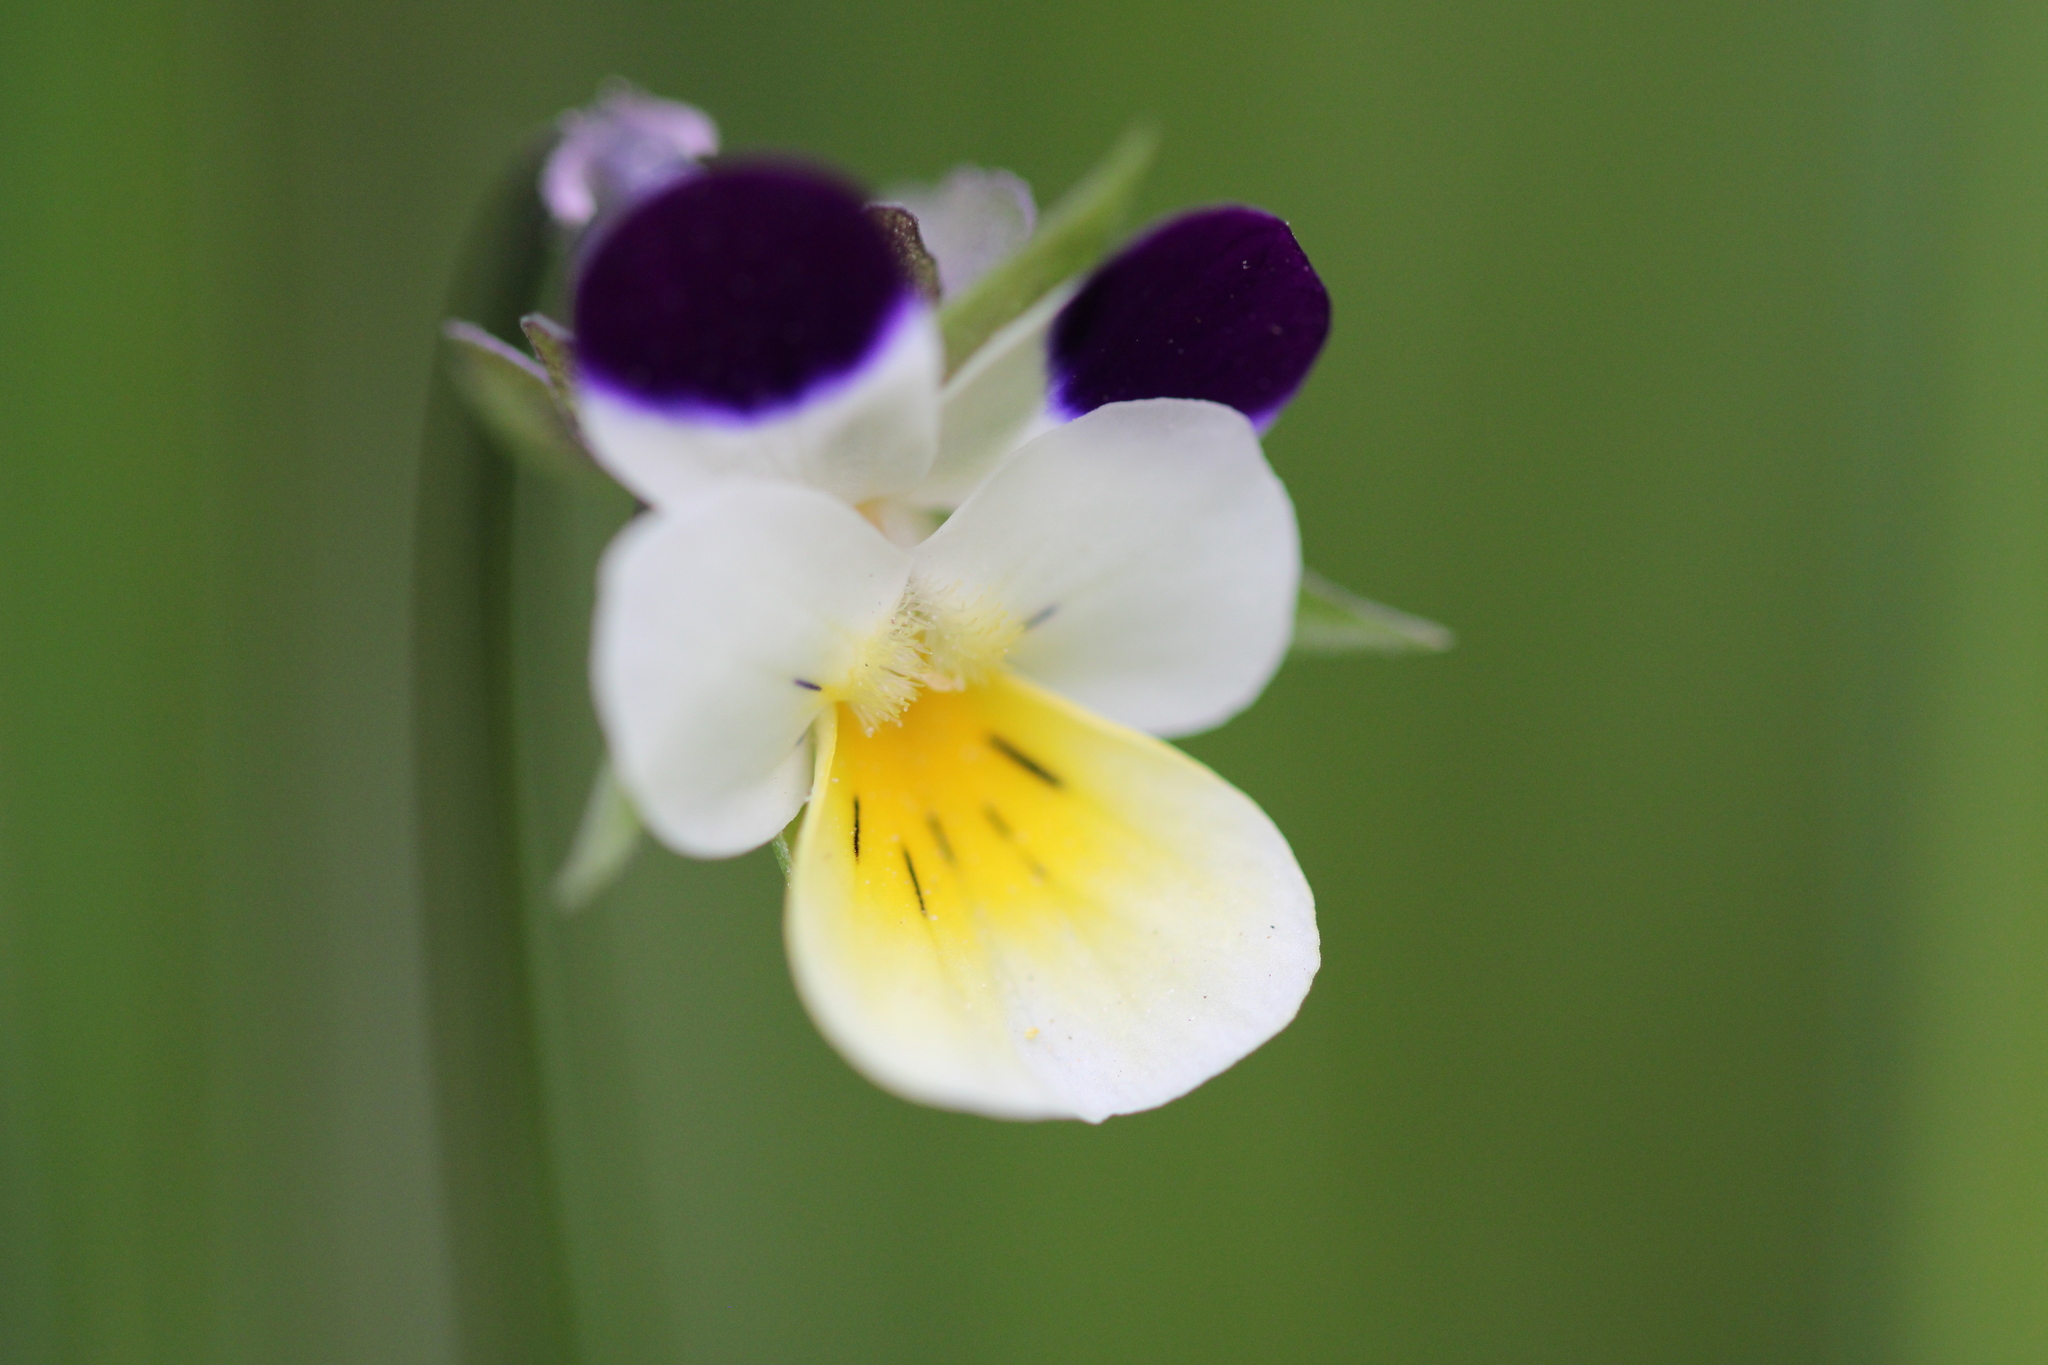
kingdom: Plantae
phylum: Tracheophyta
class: Magnoliopsida
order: Malpighiales
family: Violaceae
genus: Viola
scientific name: Viola arvensis
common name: Field pansy
